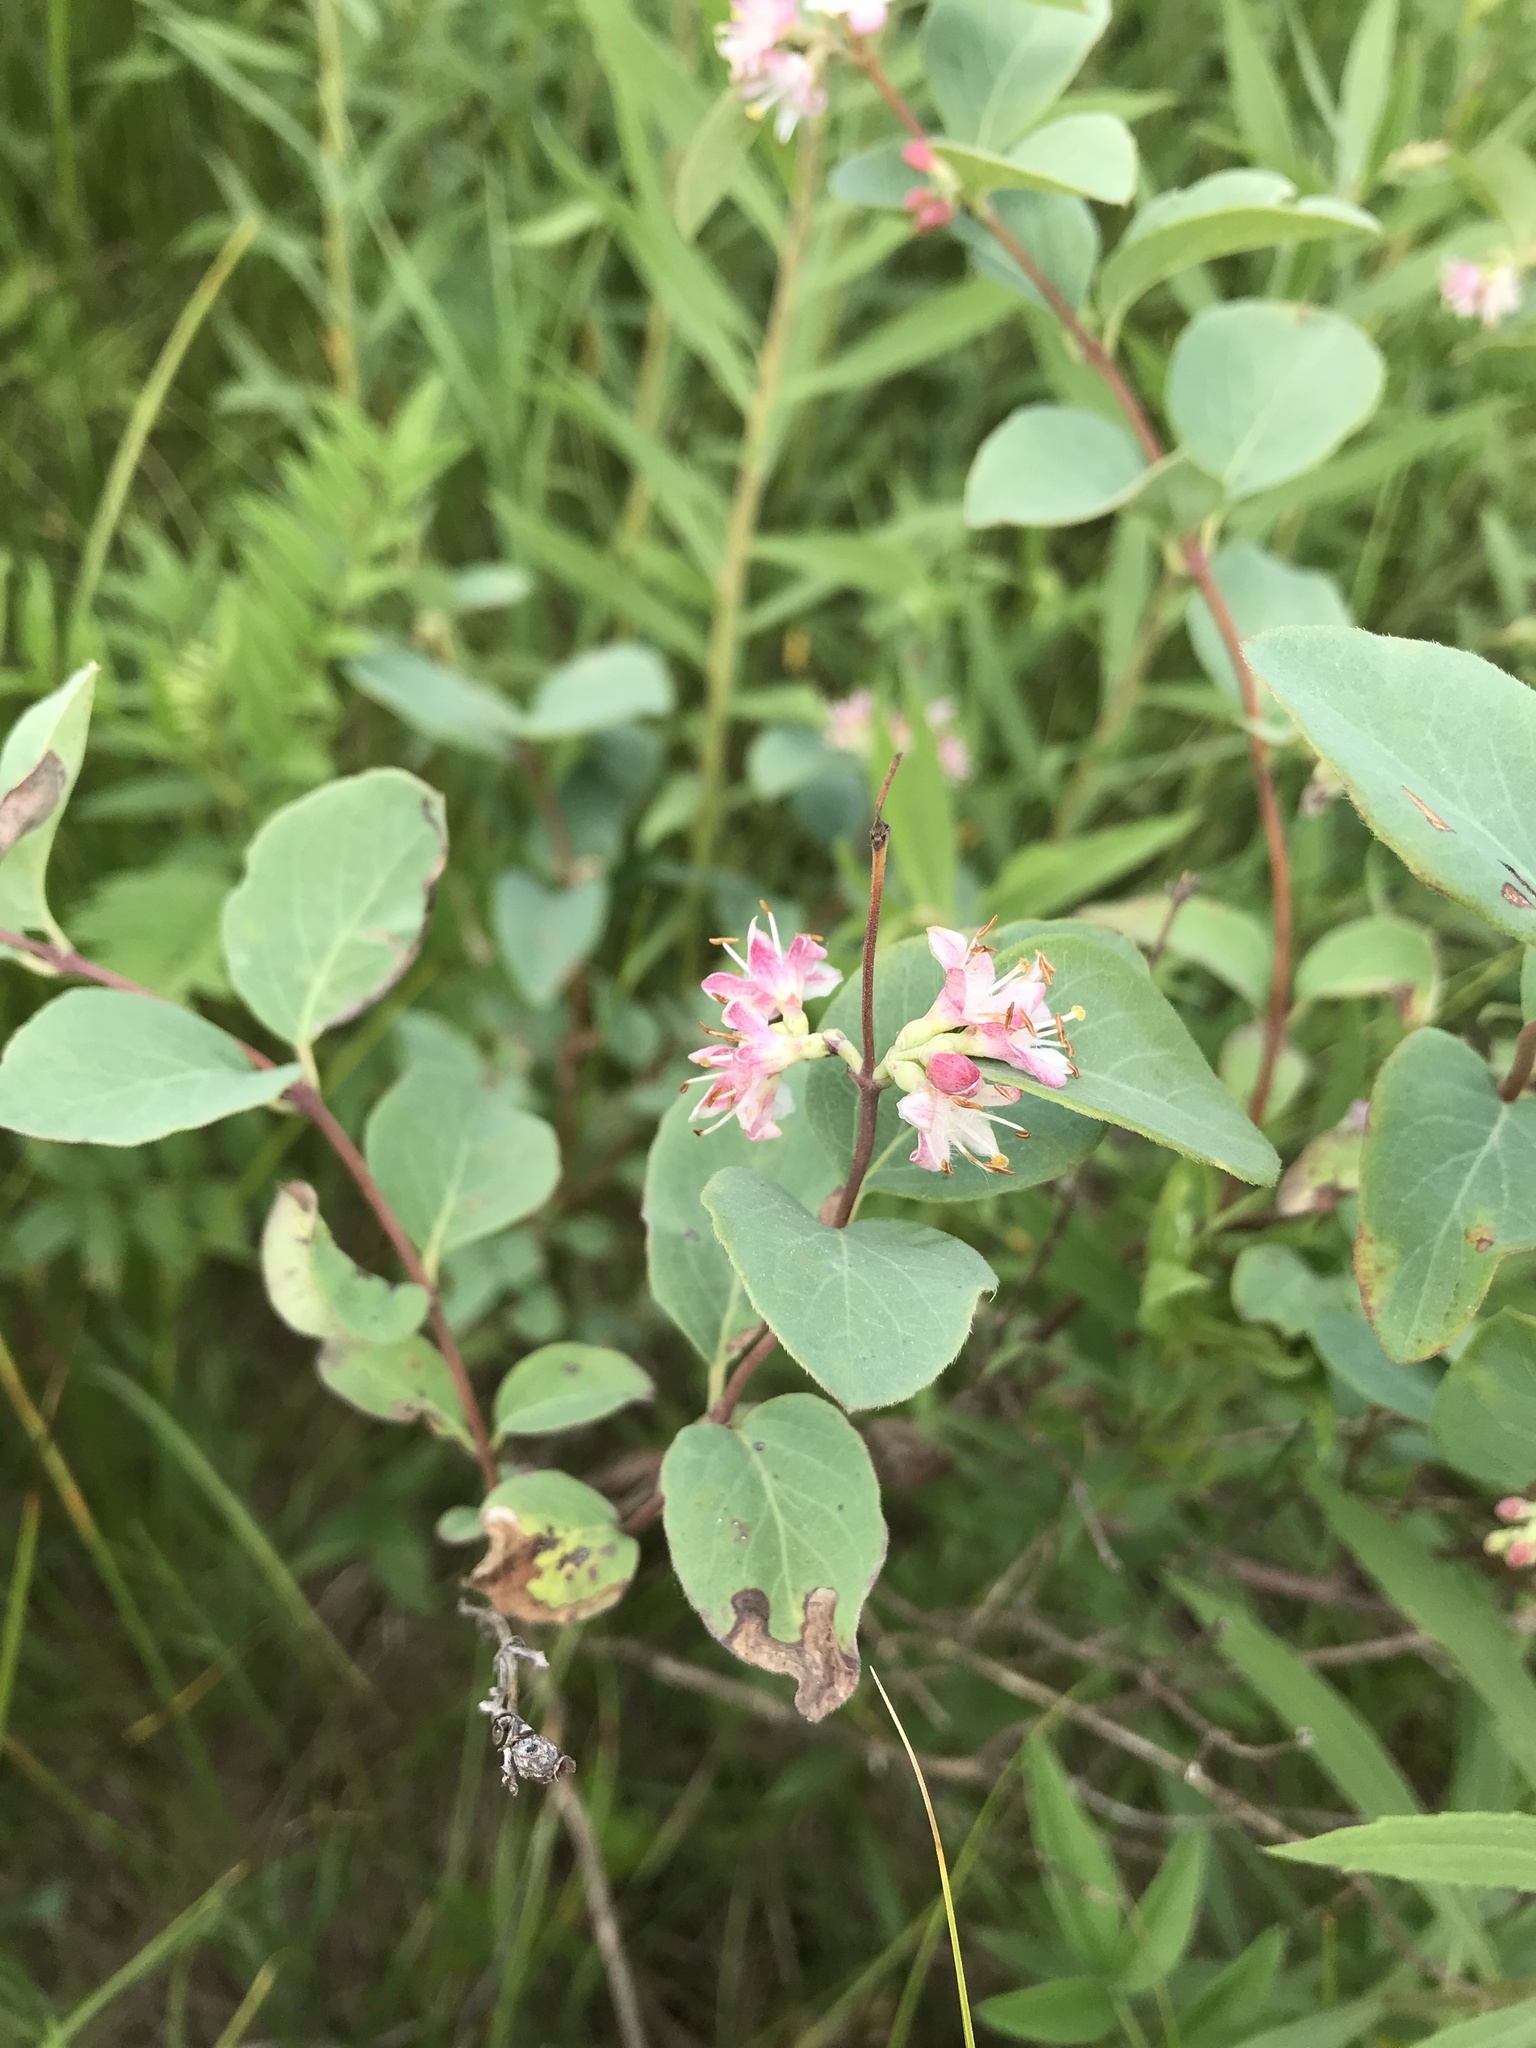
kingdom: Plantae
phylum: Tracheophyta
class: Magnoliopsida
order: Dipsacales
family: Caprifoliaceae
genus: Symphoricarpos
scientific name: Symphoricarpos occidentalis
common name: Wolfberry
